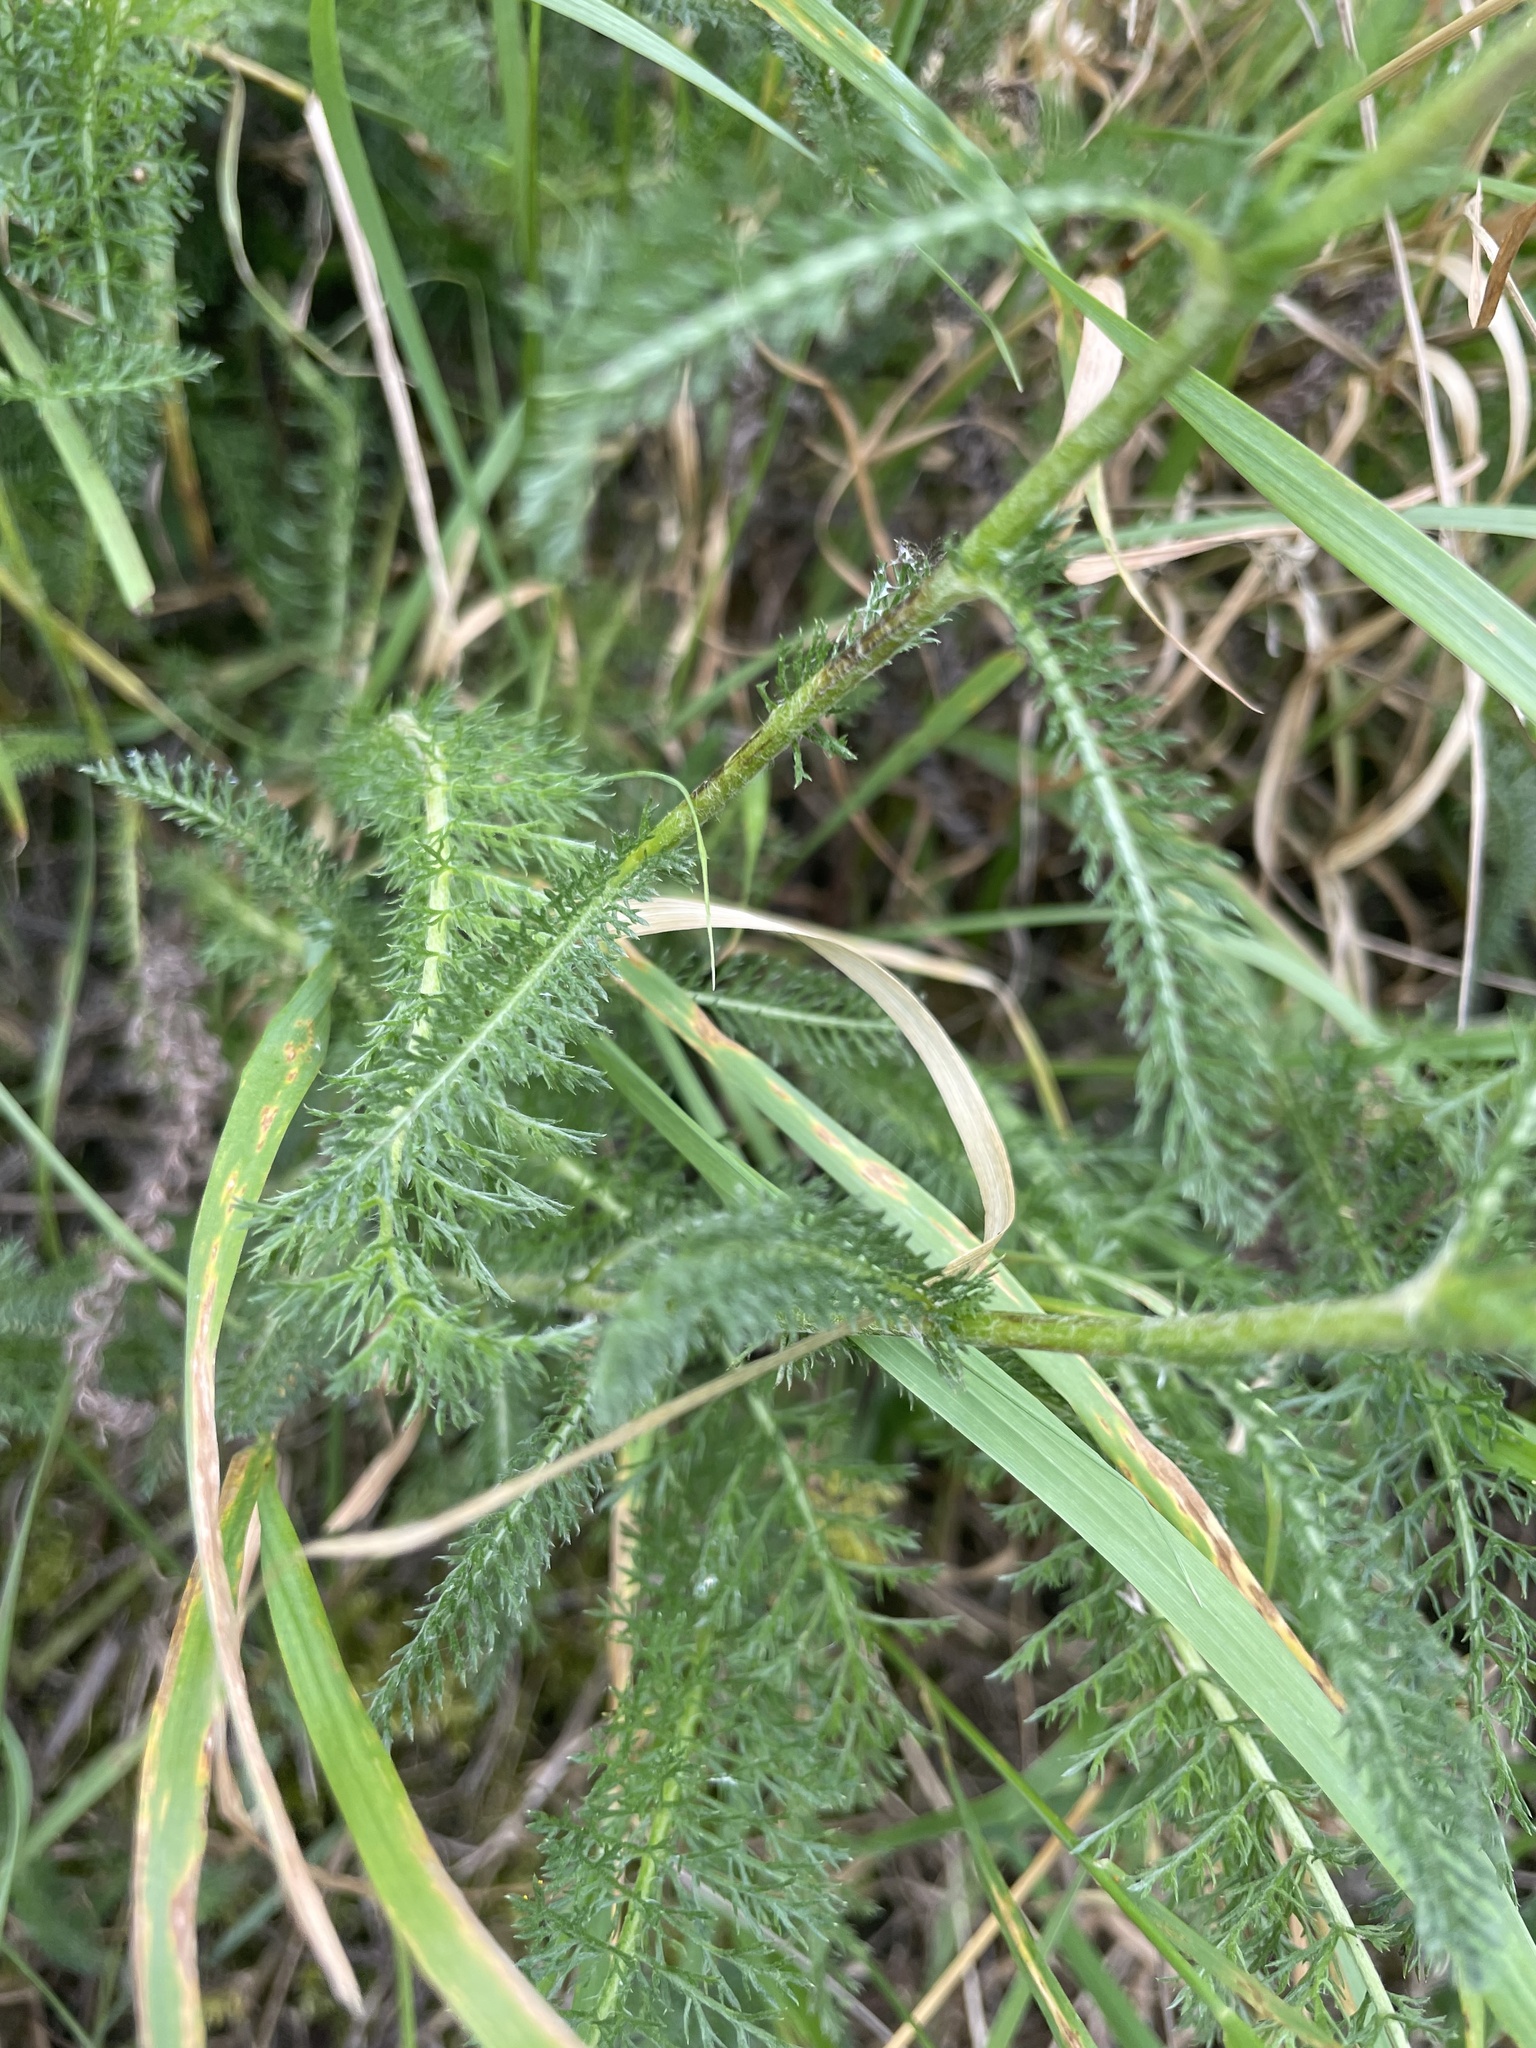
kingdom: Plantae
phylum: Tracheophyta
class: Magnoliopsida
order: Asterales
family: Asteraceae
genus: Achillea
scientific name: Achillea millefolium
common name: Yarrow
